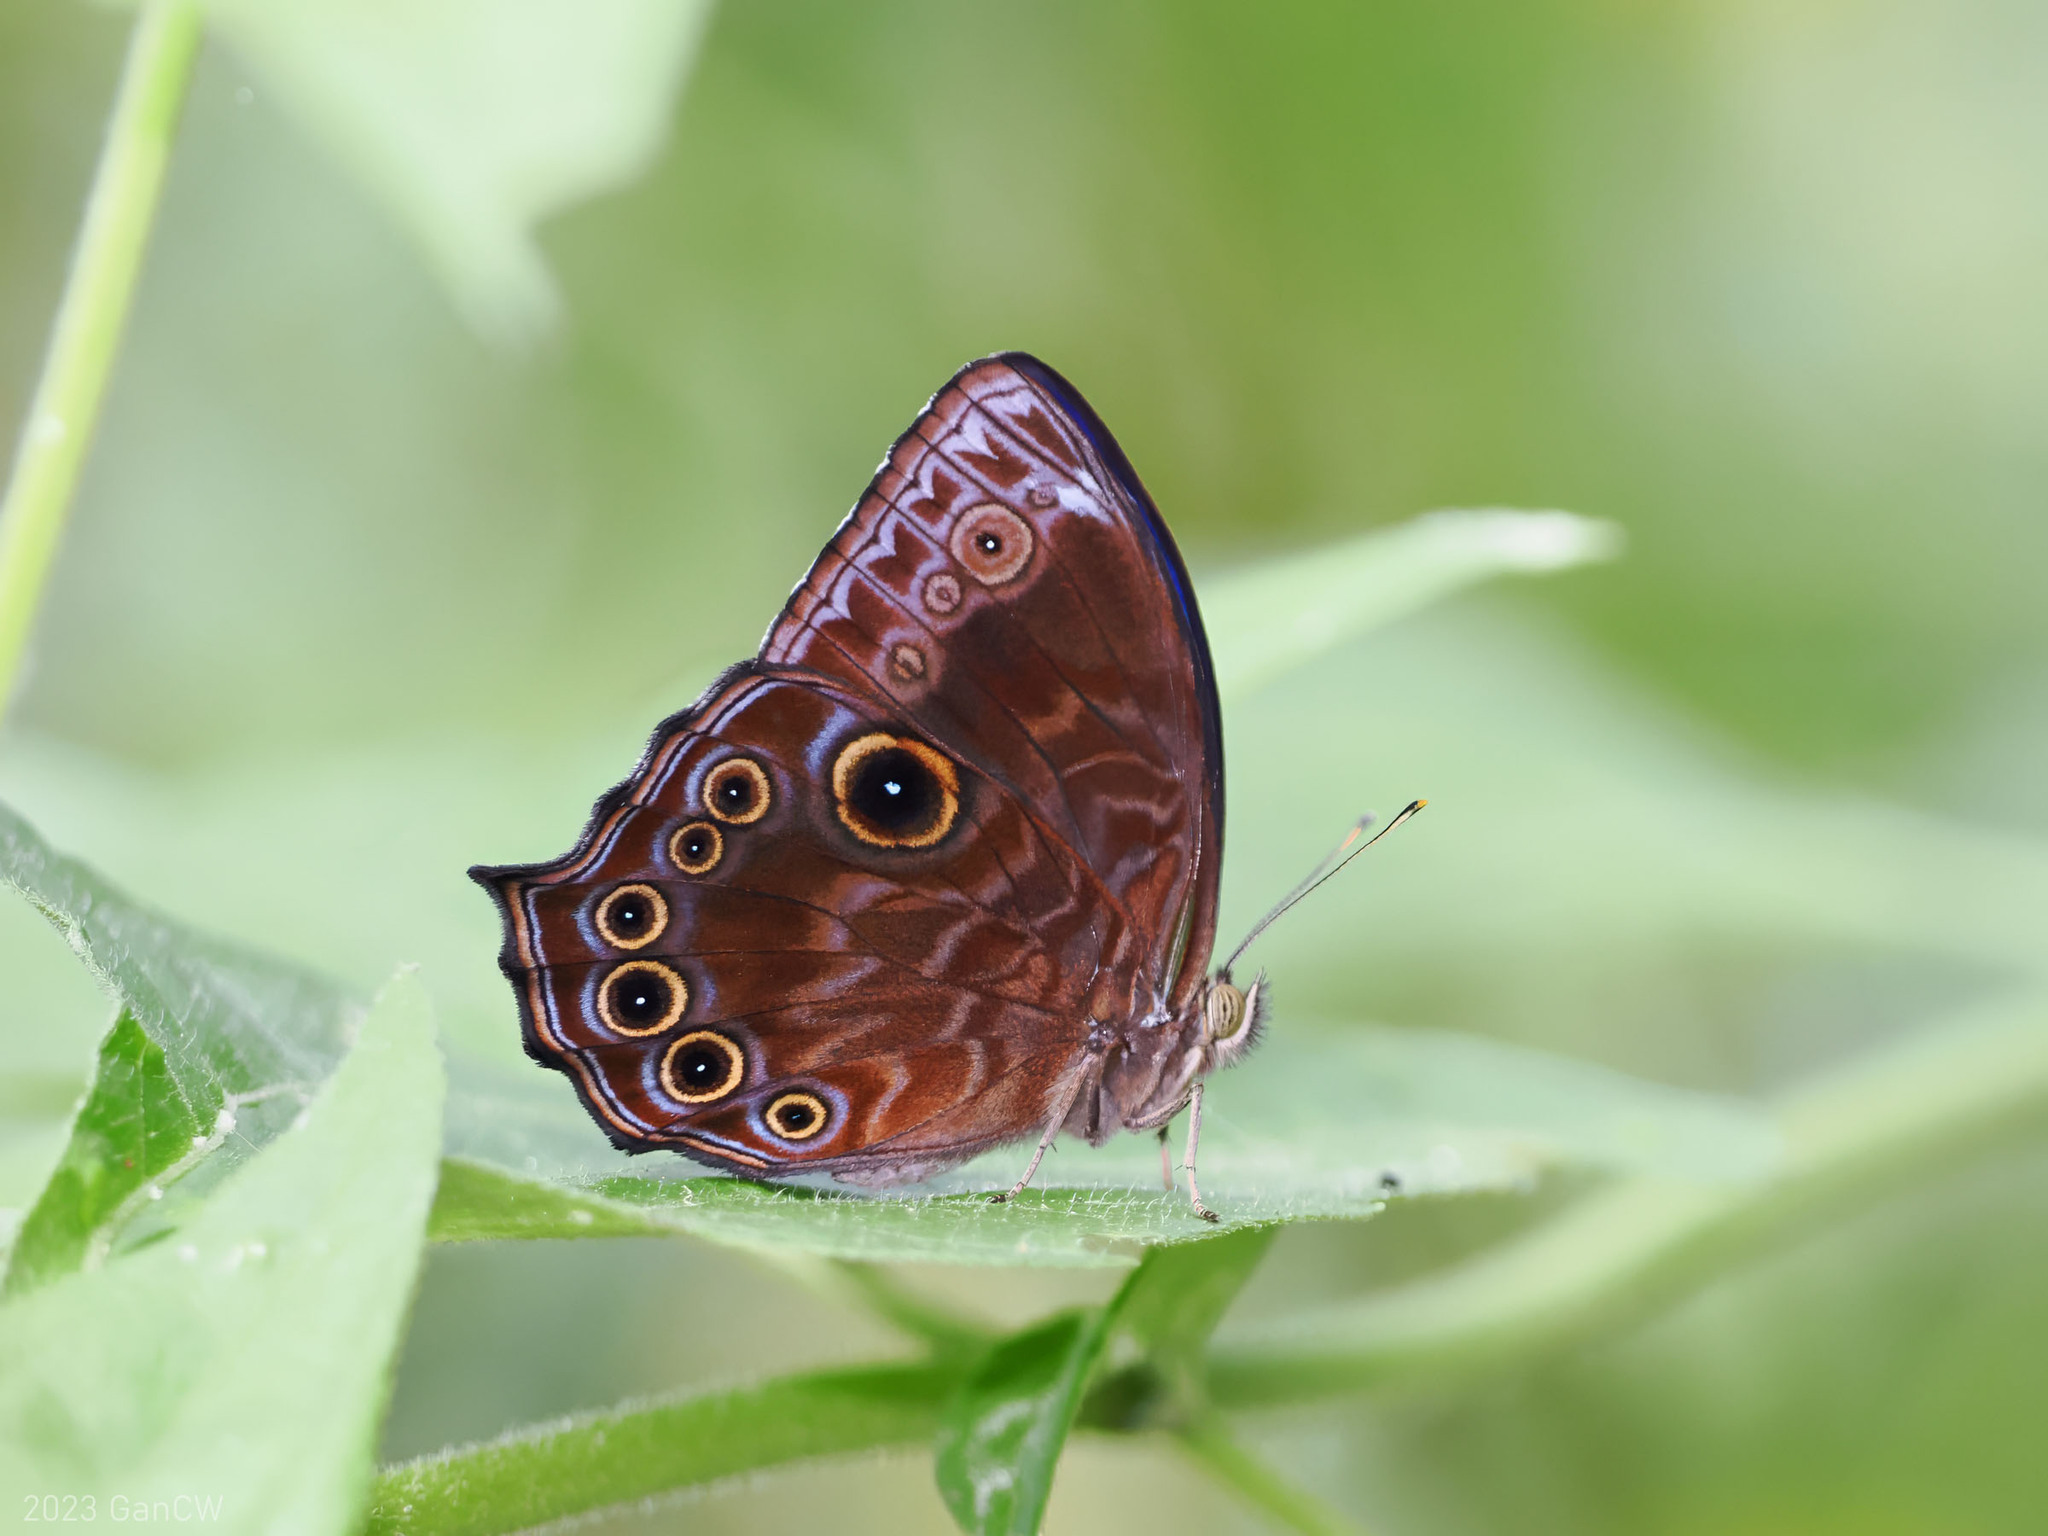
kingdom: Animalia
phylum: Arthropoda
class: Insecta
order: Lepidoptera
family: Nymphalidae
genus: Ptychandra
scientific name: Ptychandra lorquinii
